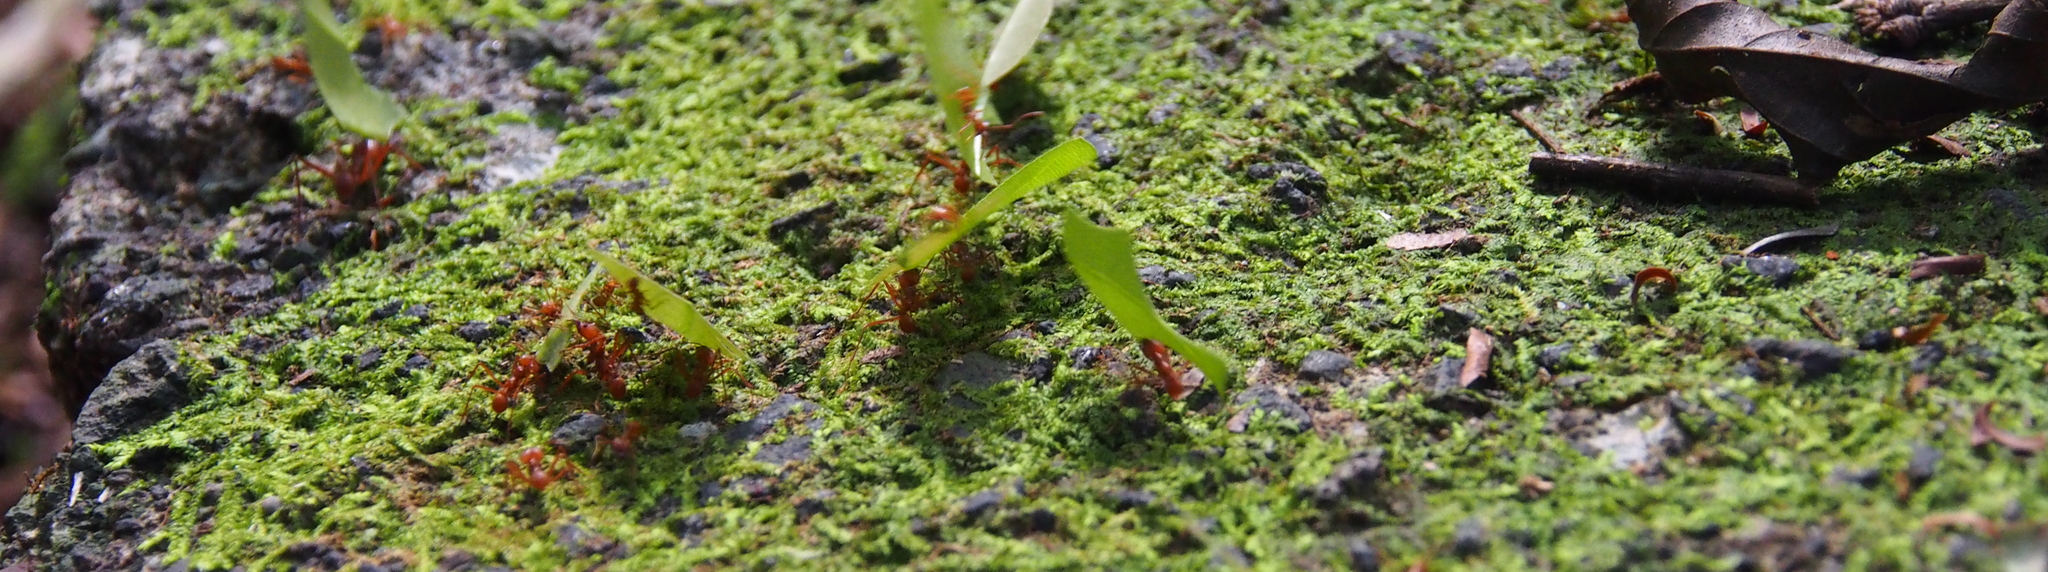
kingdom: Animalia
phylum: Arthropoda
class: Insecta
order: Hymenoptera
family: Formicidae
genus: Atta
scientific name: Atta cephalotes
